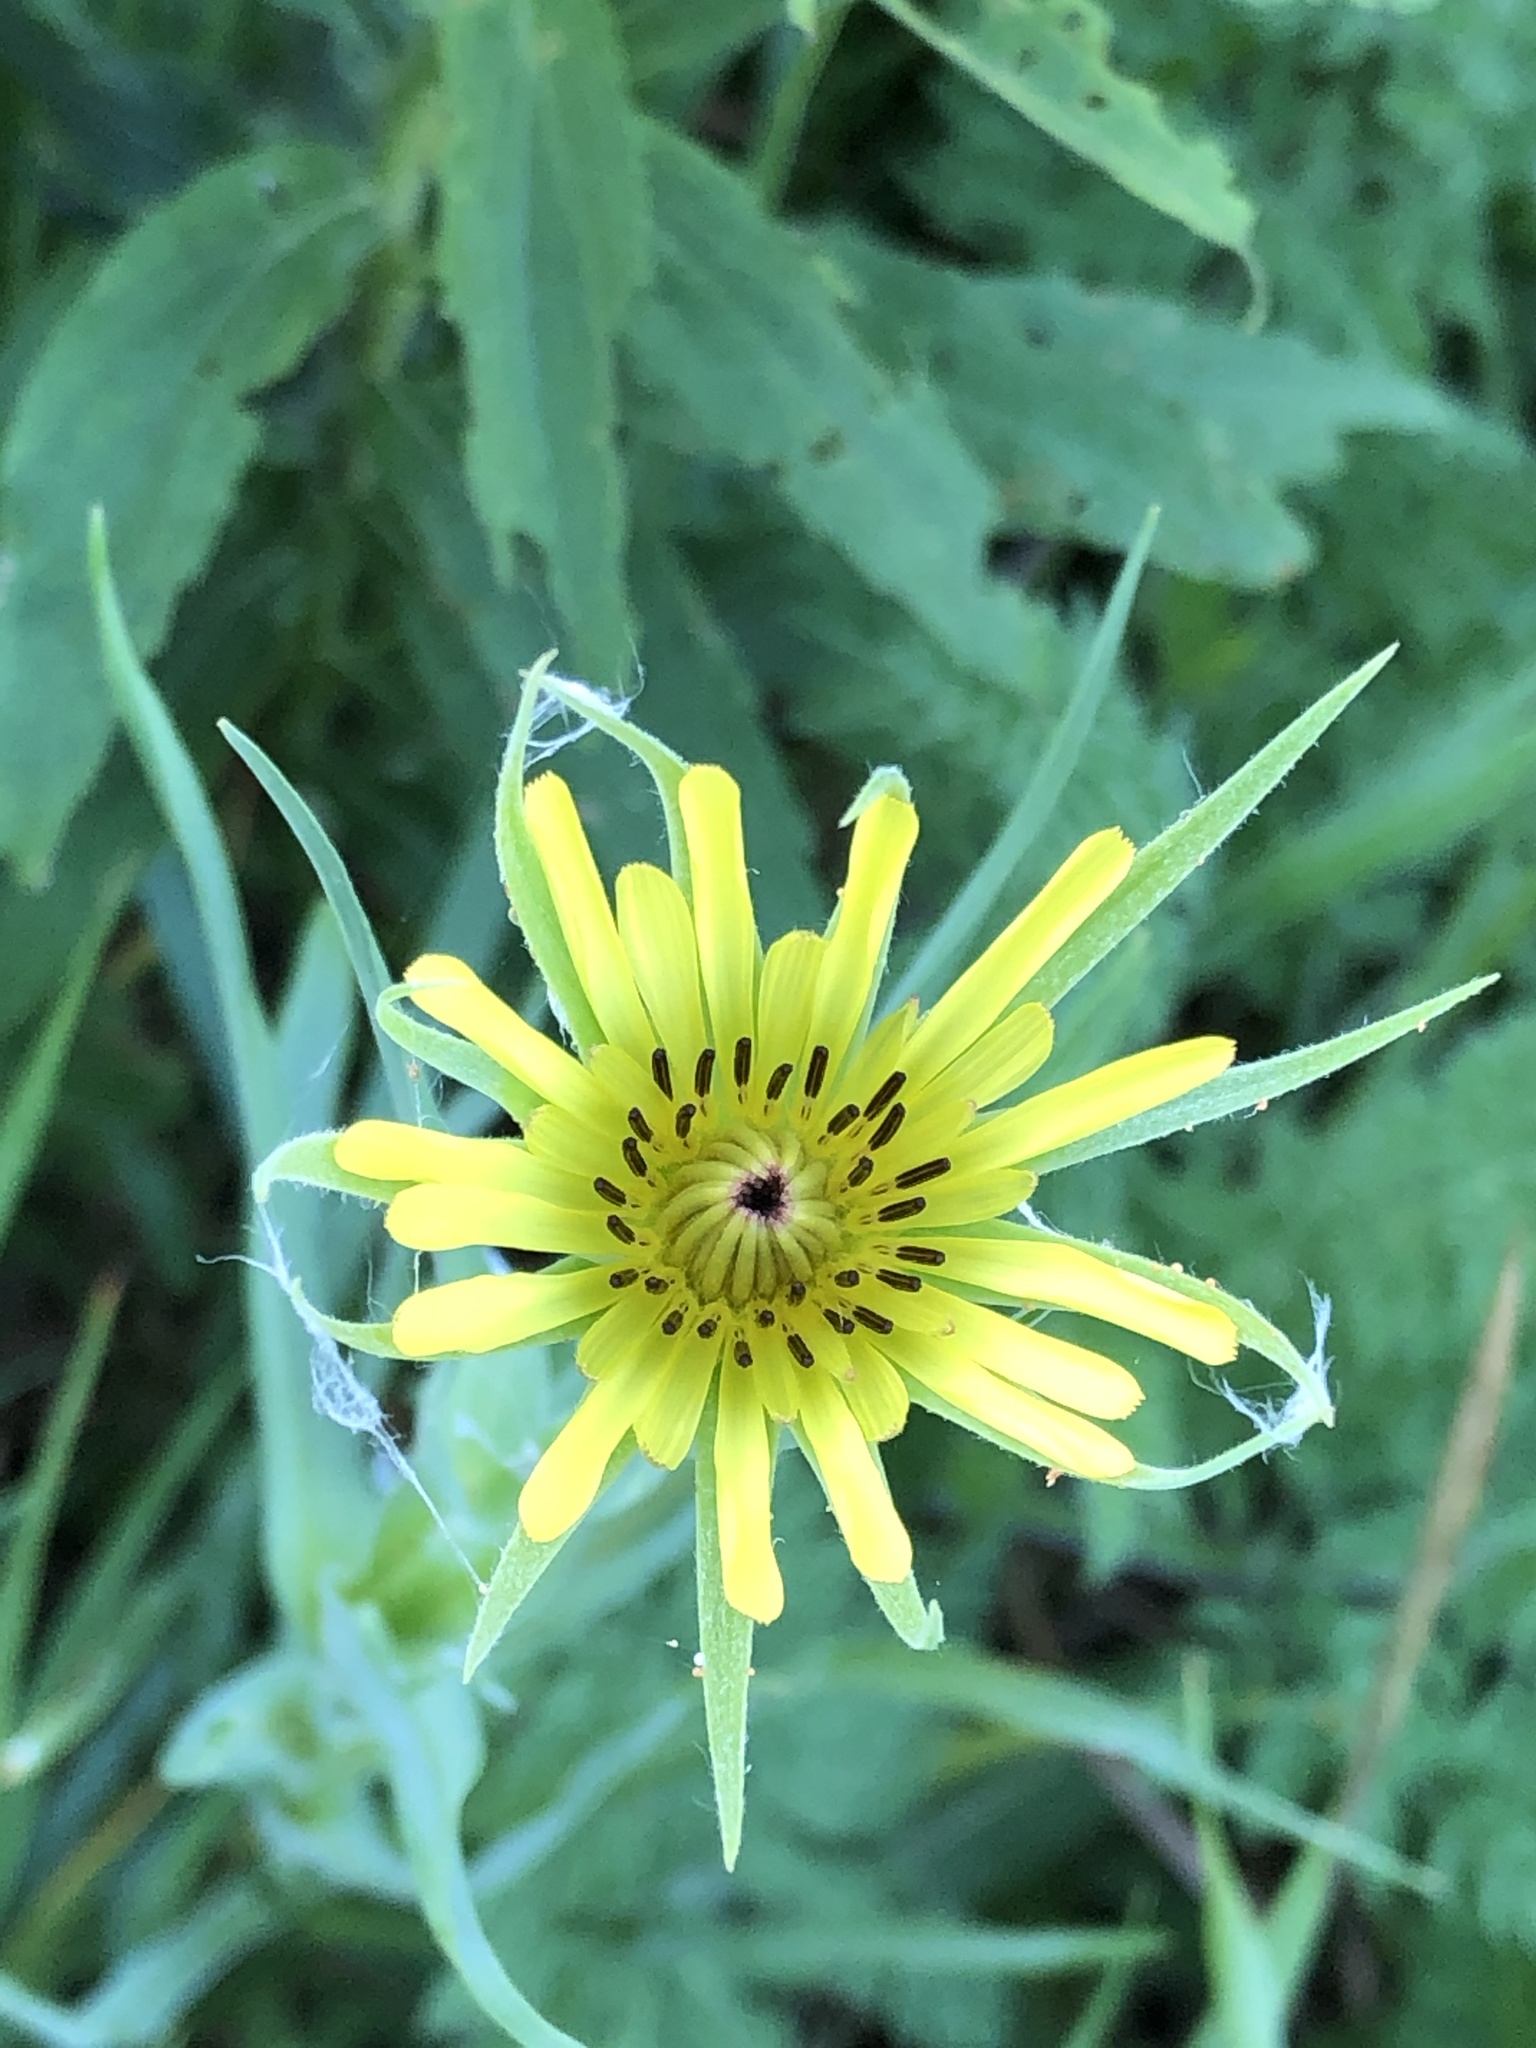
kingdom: Plantae
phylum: Tracheophyta
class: Magnoliopsida
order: Asterales
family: Asteraceae
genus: Tragopogon
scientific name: Tragopogon dubius
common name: Yellow salsify
